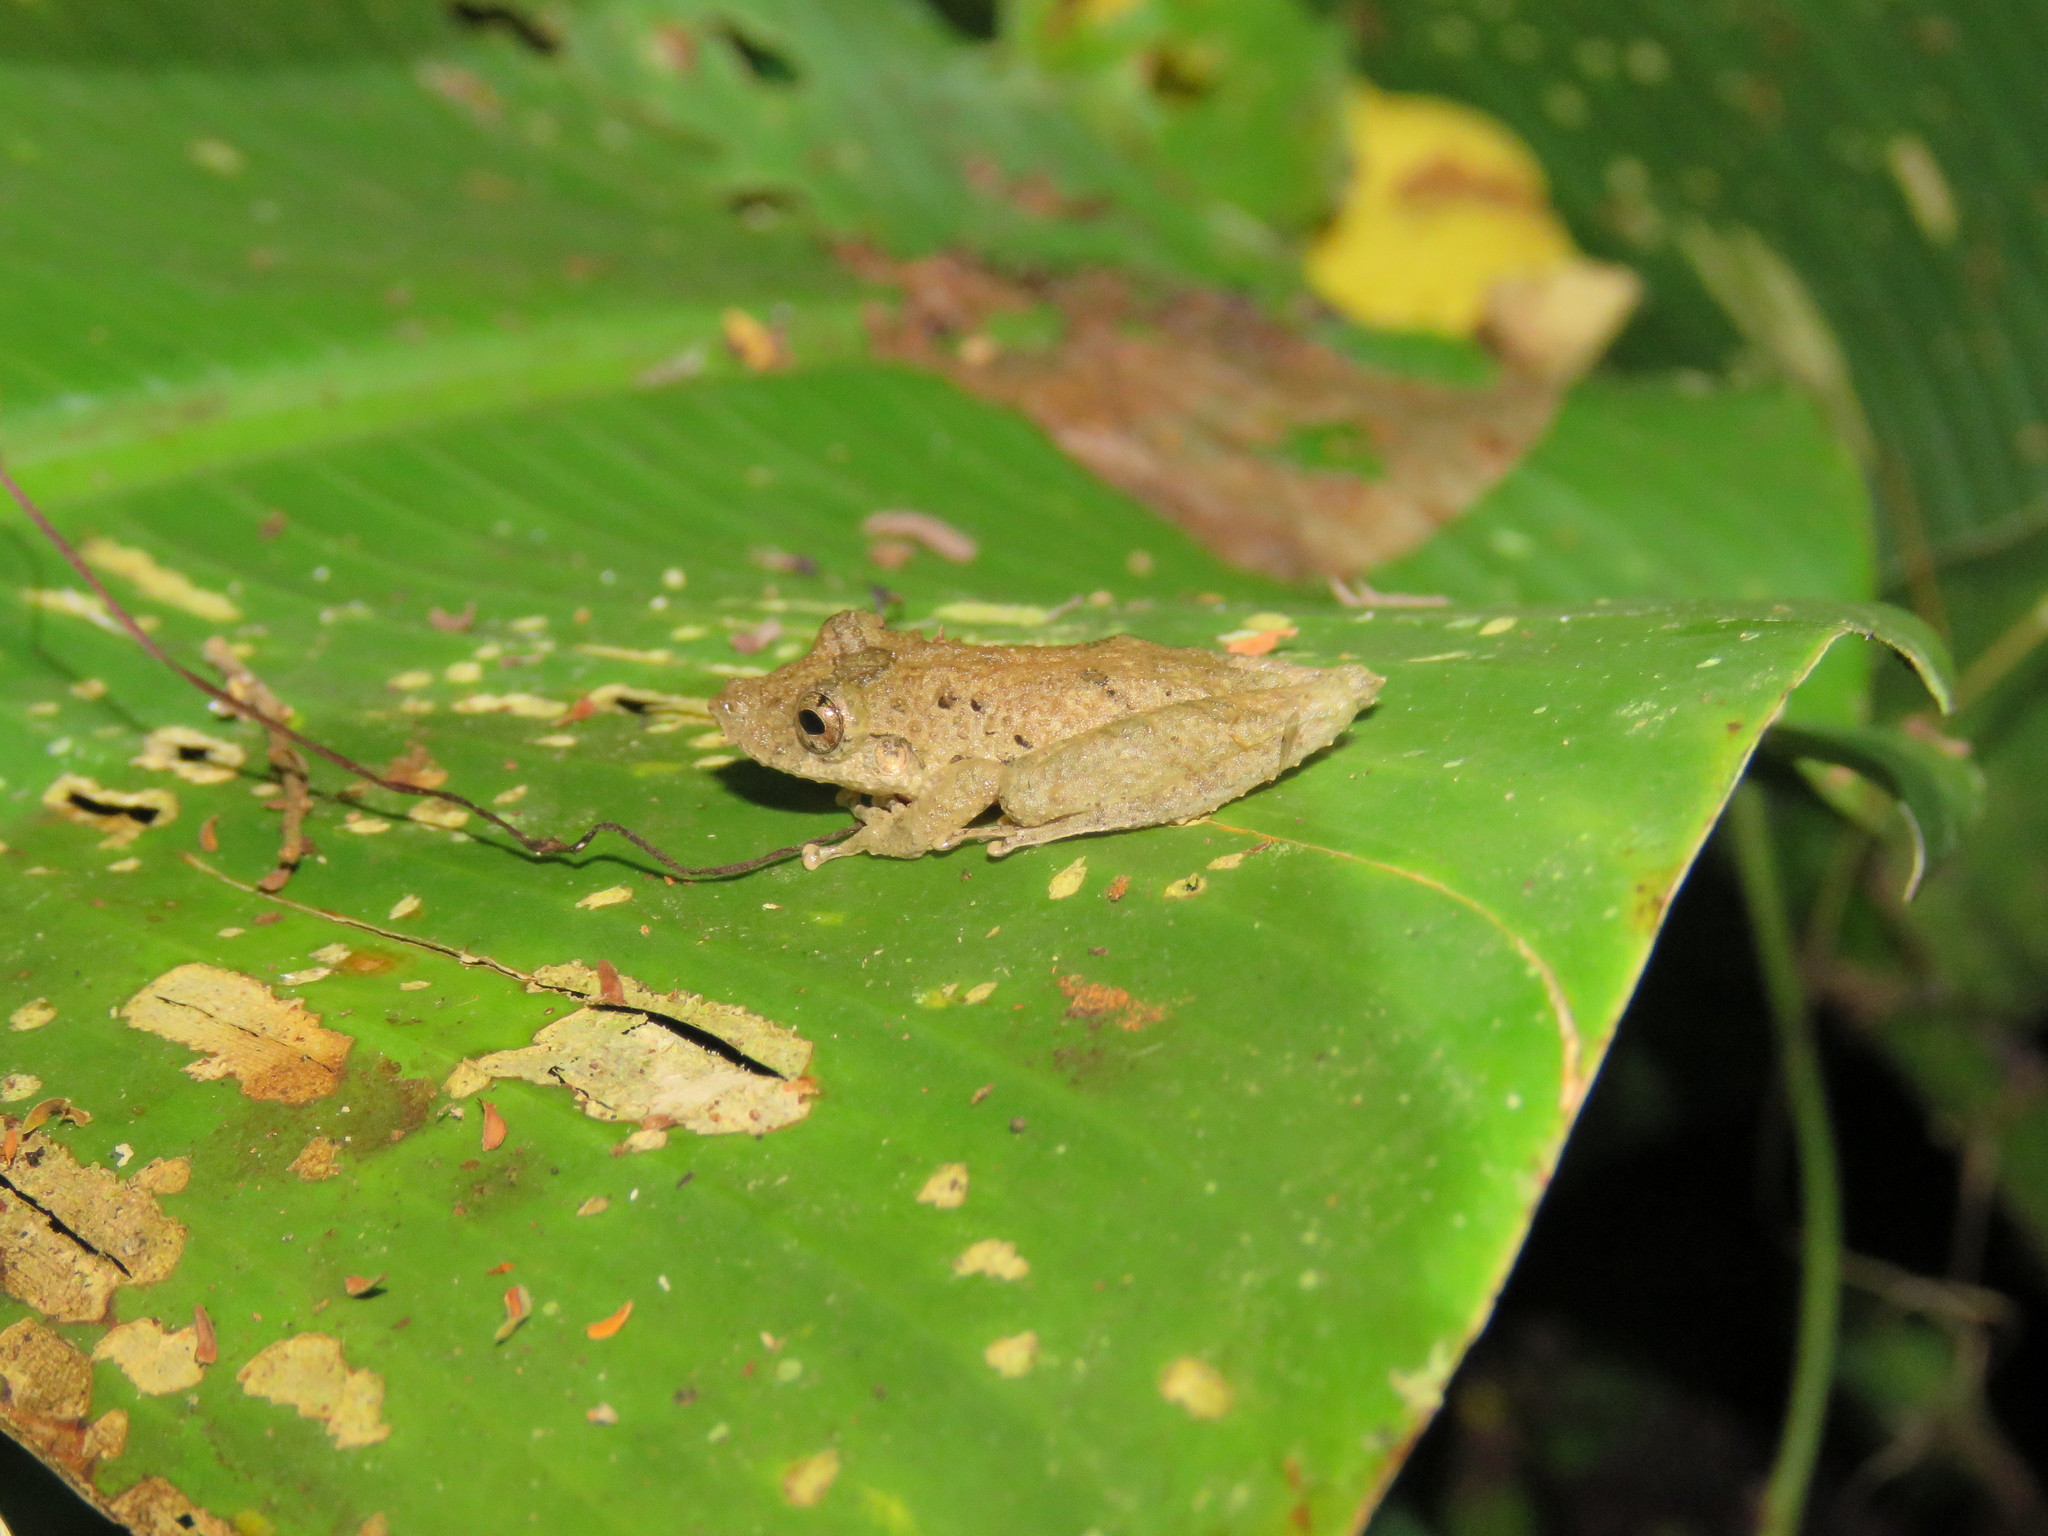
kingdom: Animalia
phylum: Chordata
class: Amphibia
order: Anura
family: Hylidae
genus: Scinax
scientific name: Scinax garbei
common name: Eirunepe snouted treefrog
